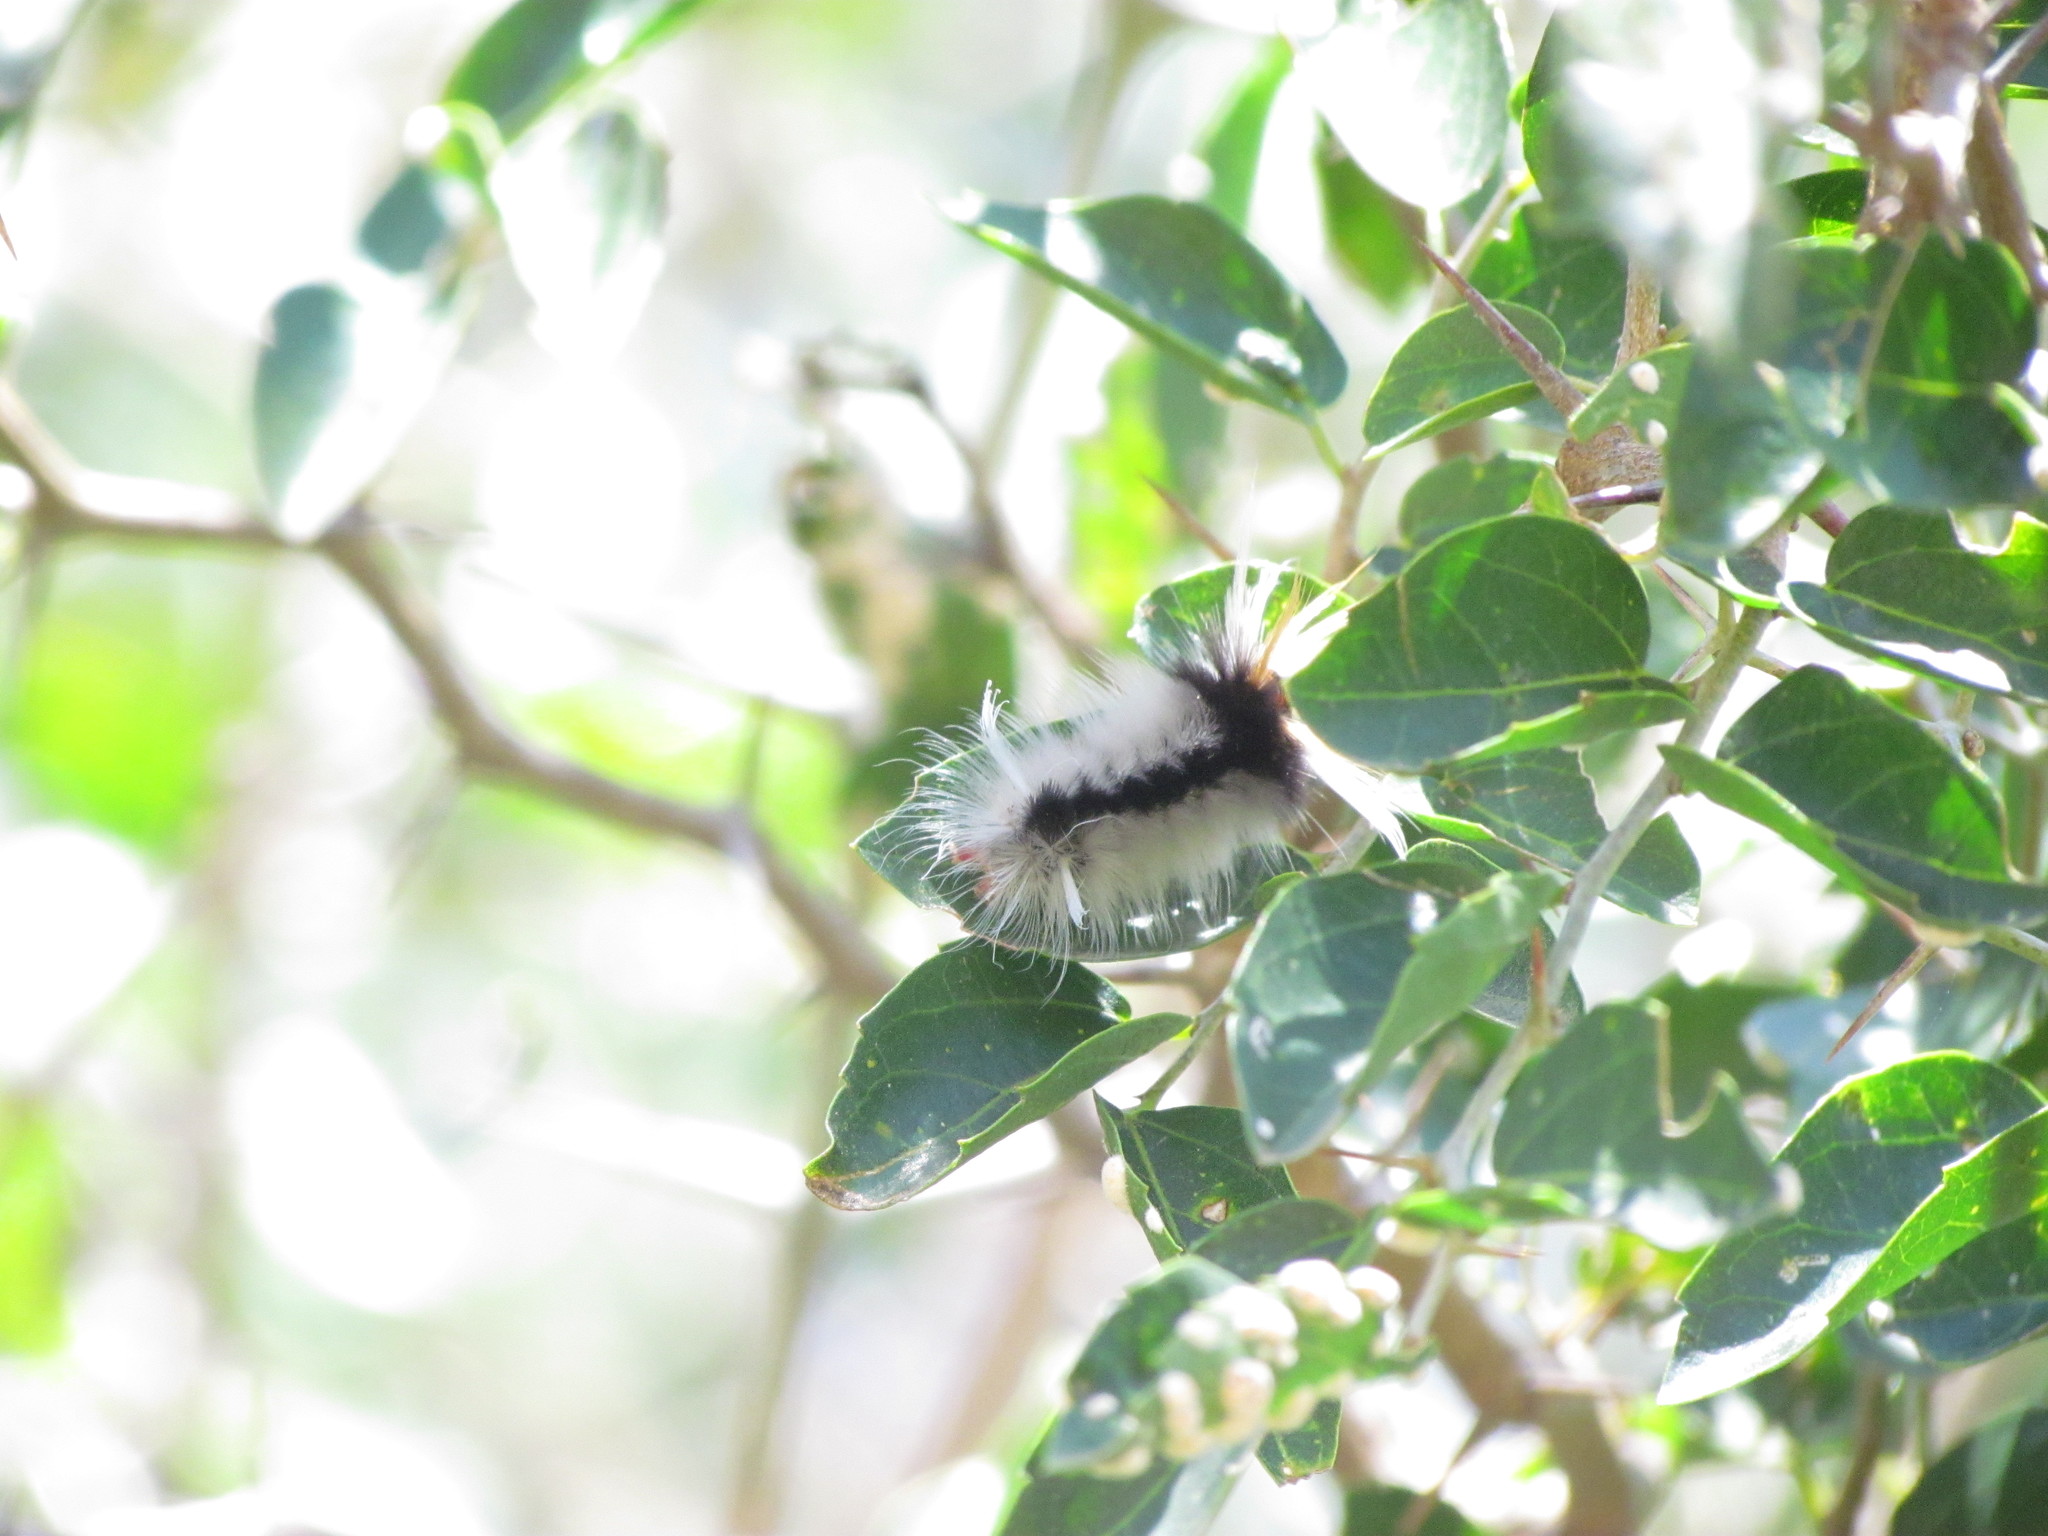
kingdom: Animalia
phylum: Arthropoda
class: Insecta
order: Lepidoptera
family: Erebidae
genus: Halysidota
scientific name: Halysidota ruscheweyhi
